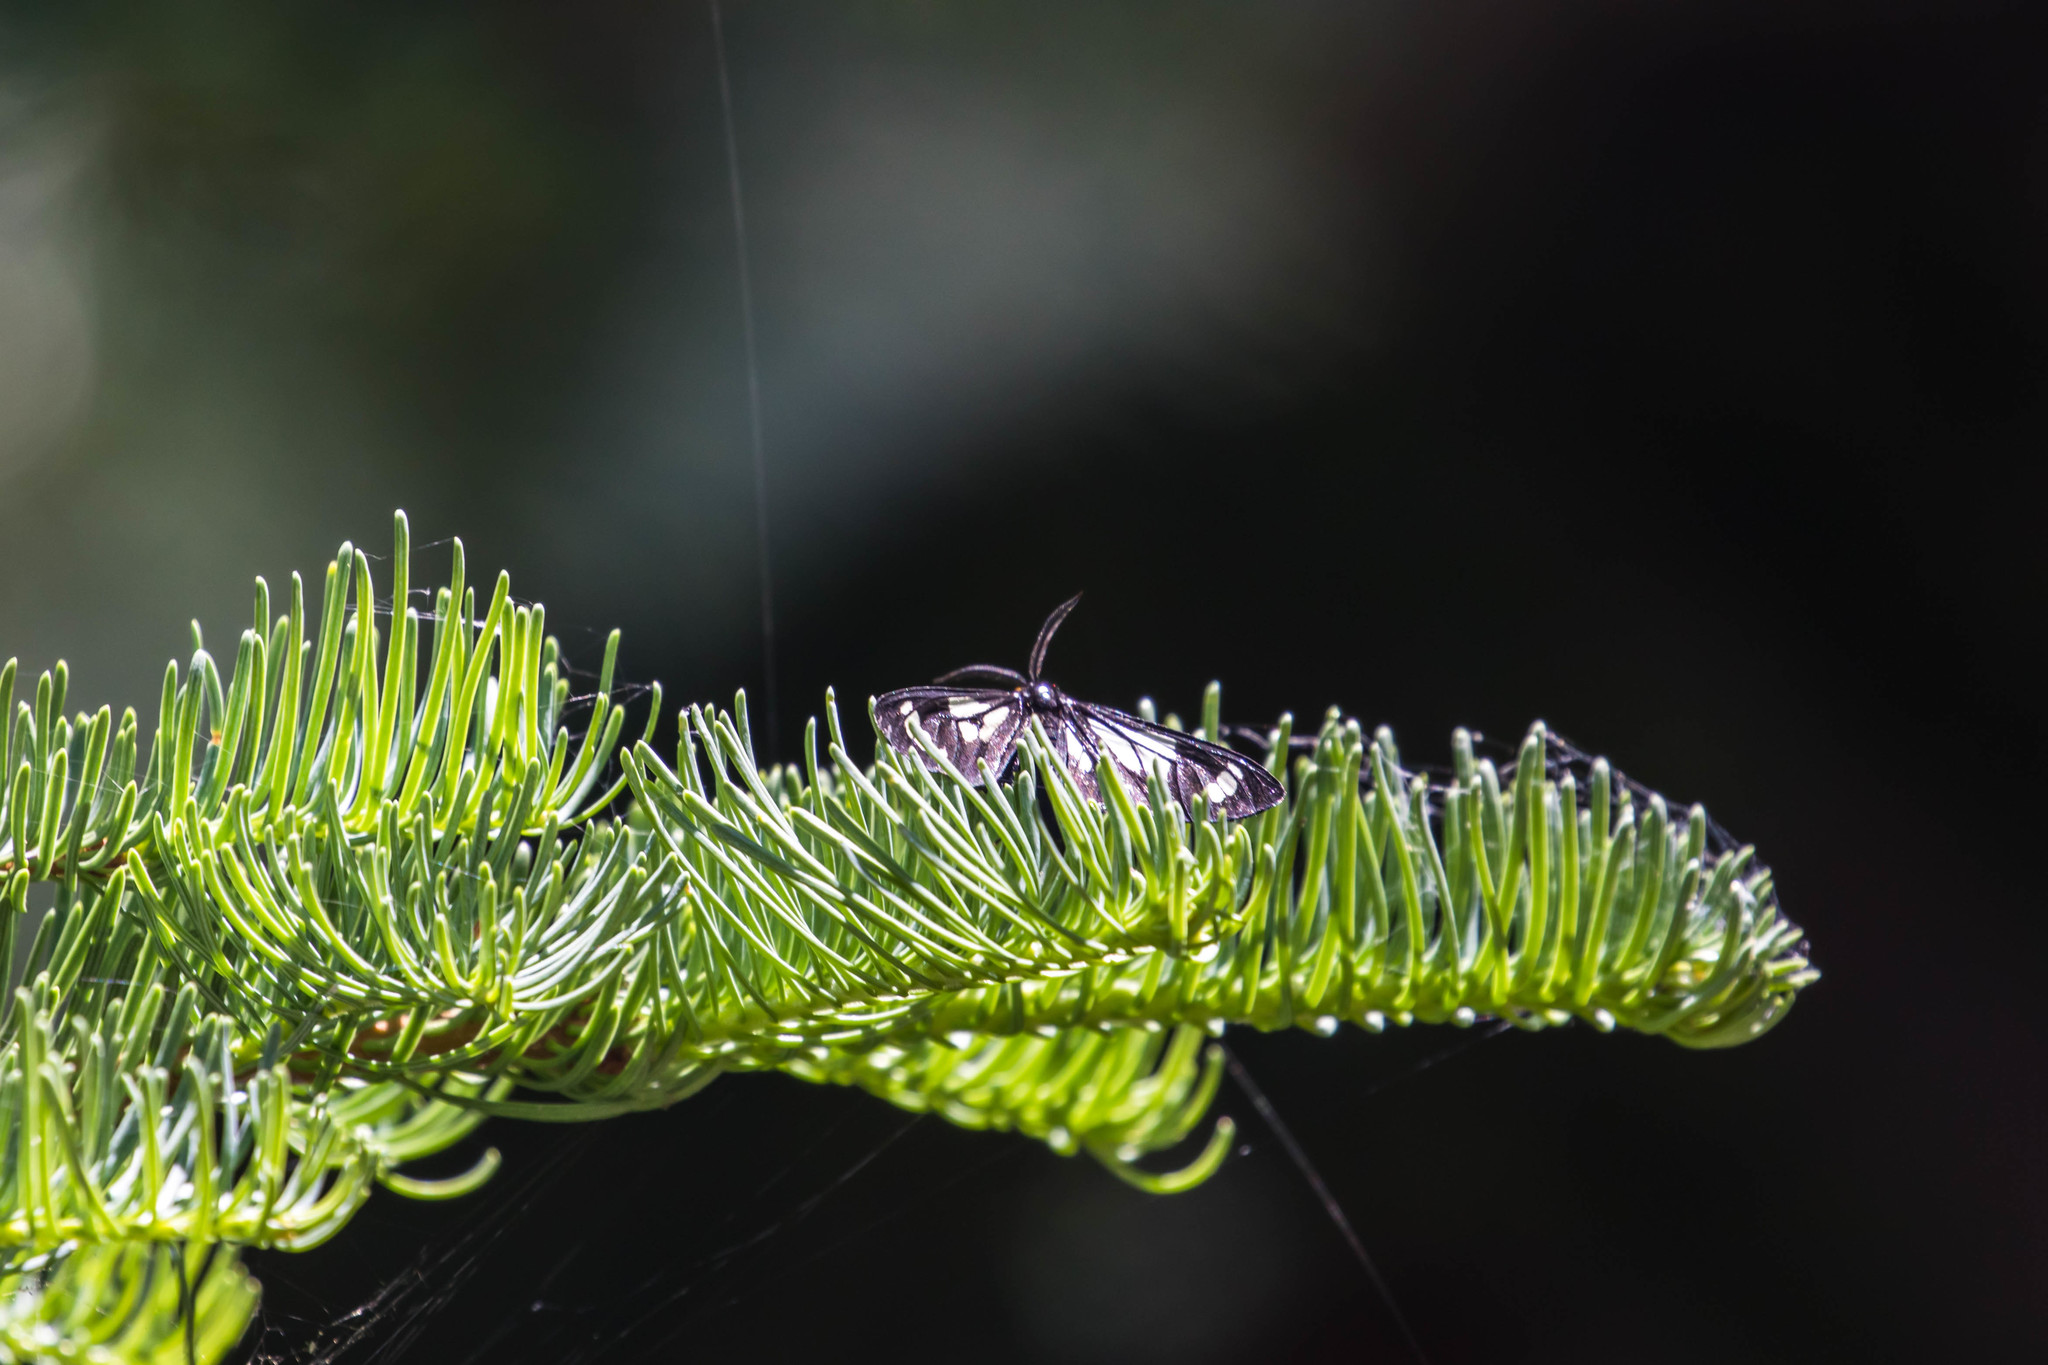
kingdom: Animalia
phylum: Arthropoda
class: Insecta
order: Lepidoptera
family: Erebidae
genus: Gnophaela
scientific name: Gnophaela vermiculata
